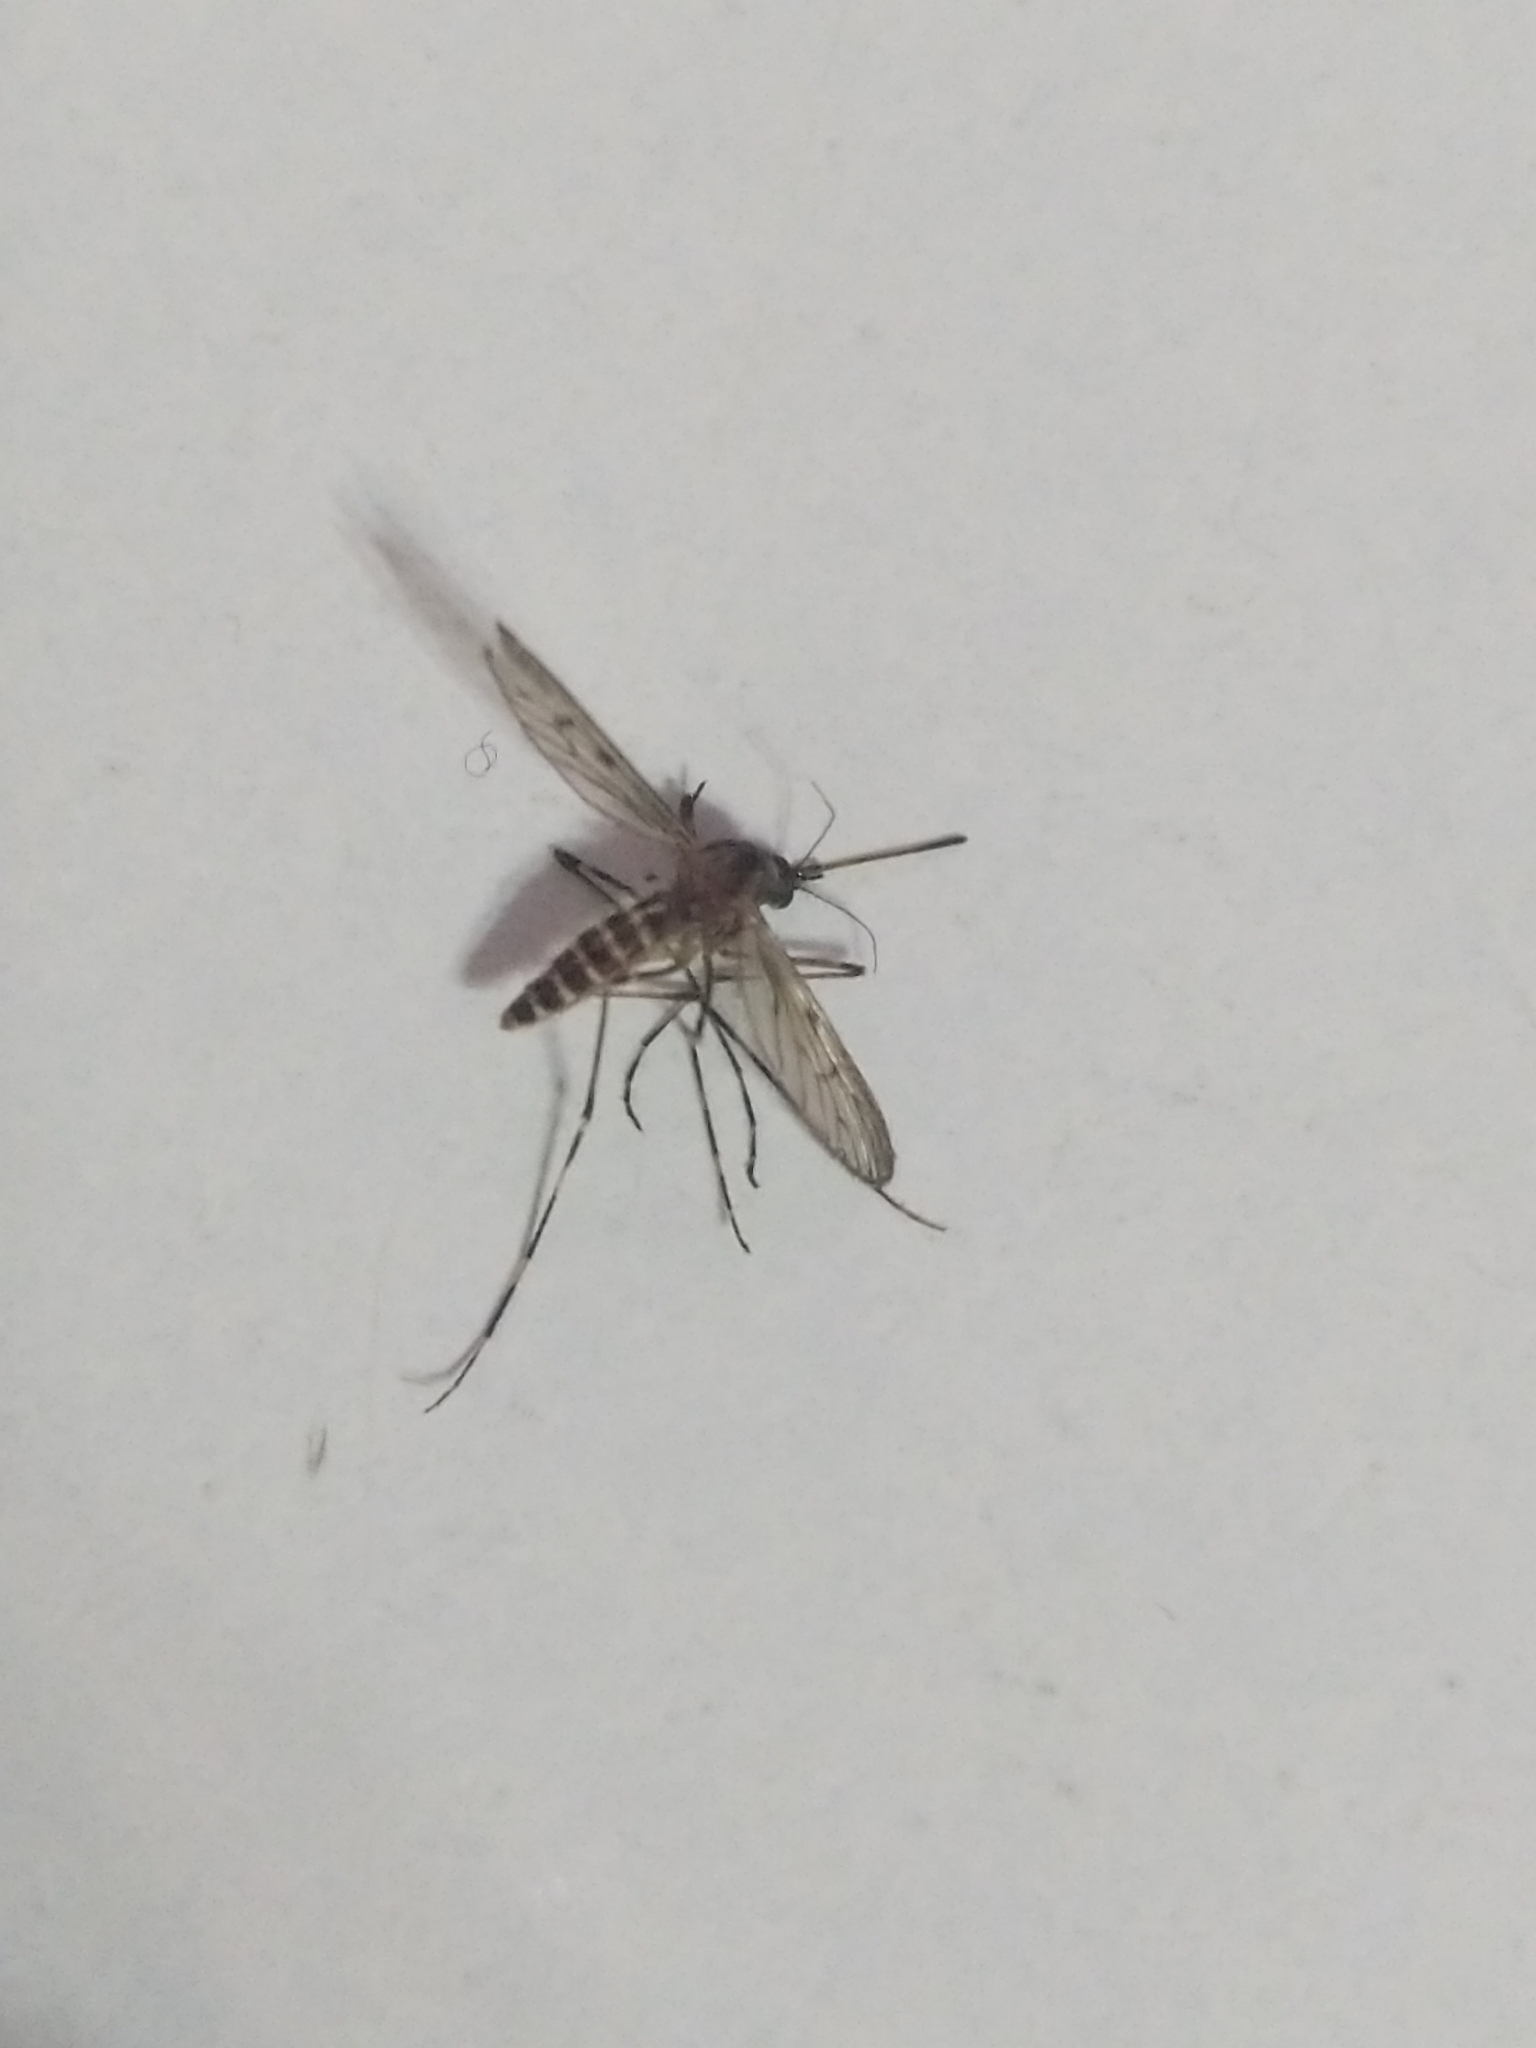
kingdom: Animalia
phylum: Arthropoda
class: Insecta
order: Diptera
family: Culicidae
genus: Culiseta
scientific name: Culiseta annulata
